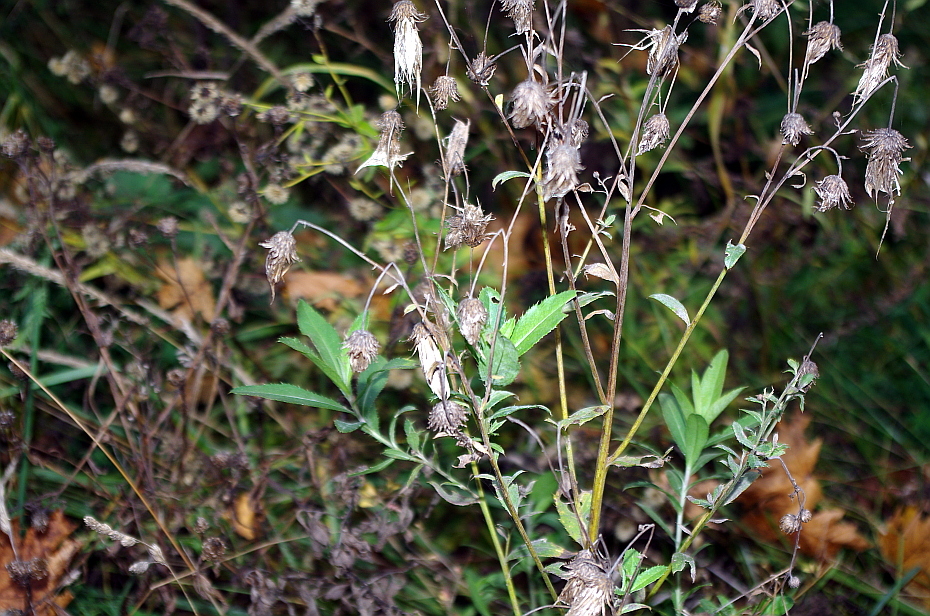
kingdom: Plantae
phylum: Tracheophyta
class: Magnoliopsida
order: Asterales
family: Asteraceae
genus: Cirsium
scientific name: Cirsium arvense
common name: Creeping thistle
